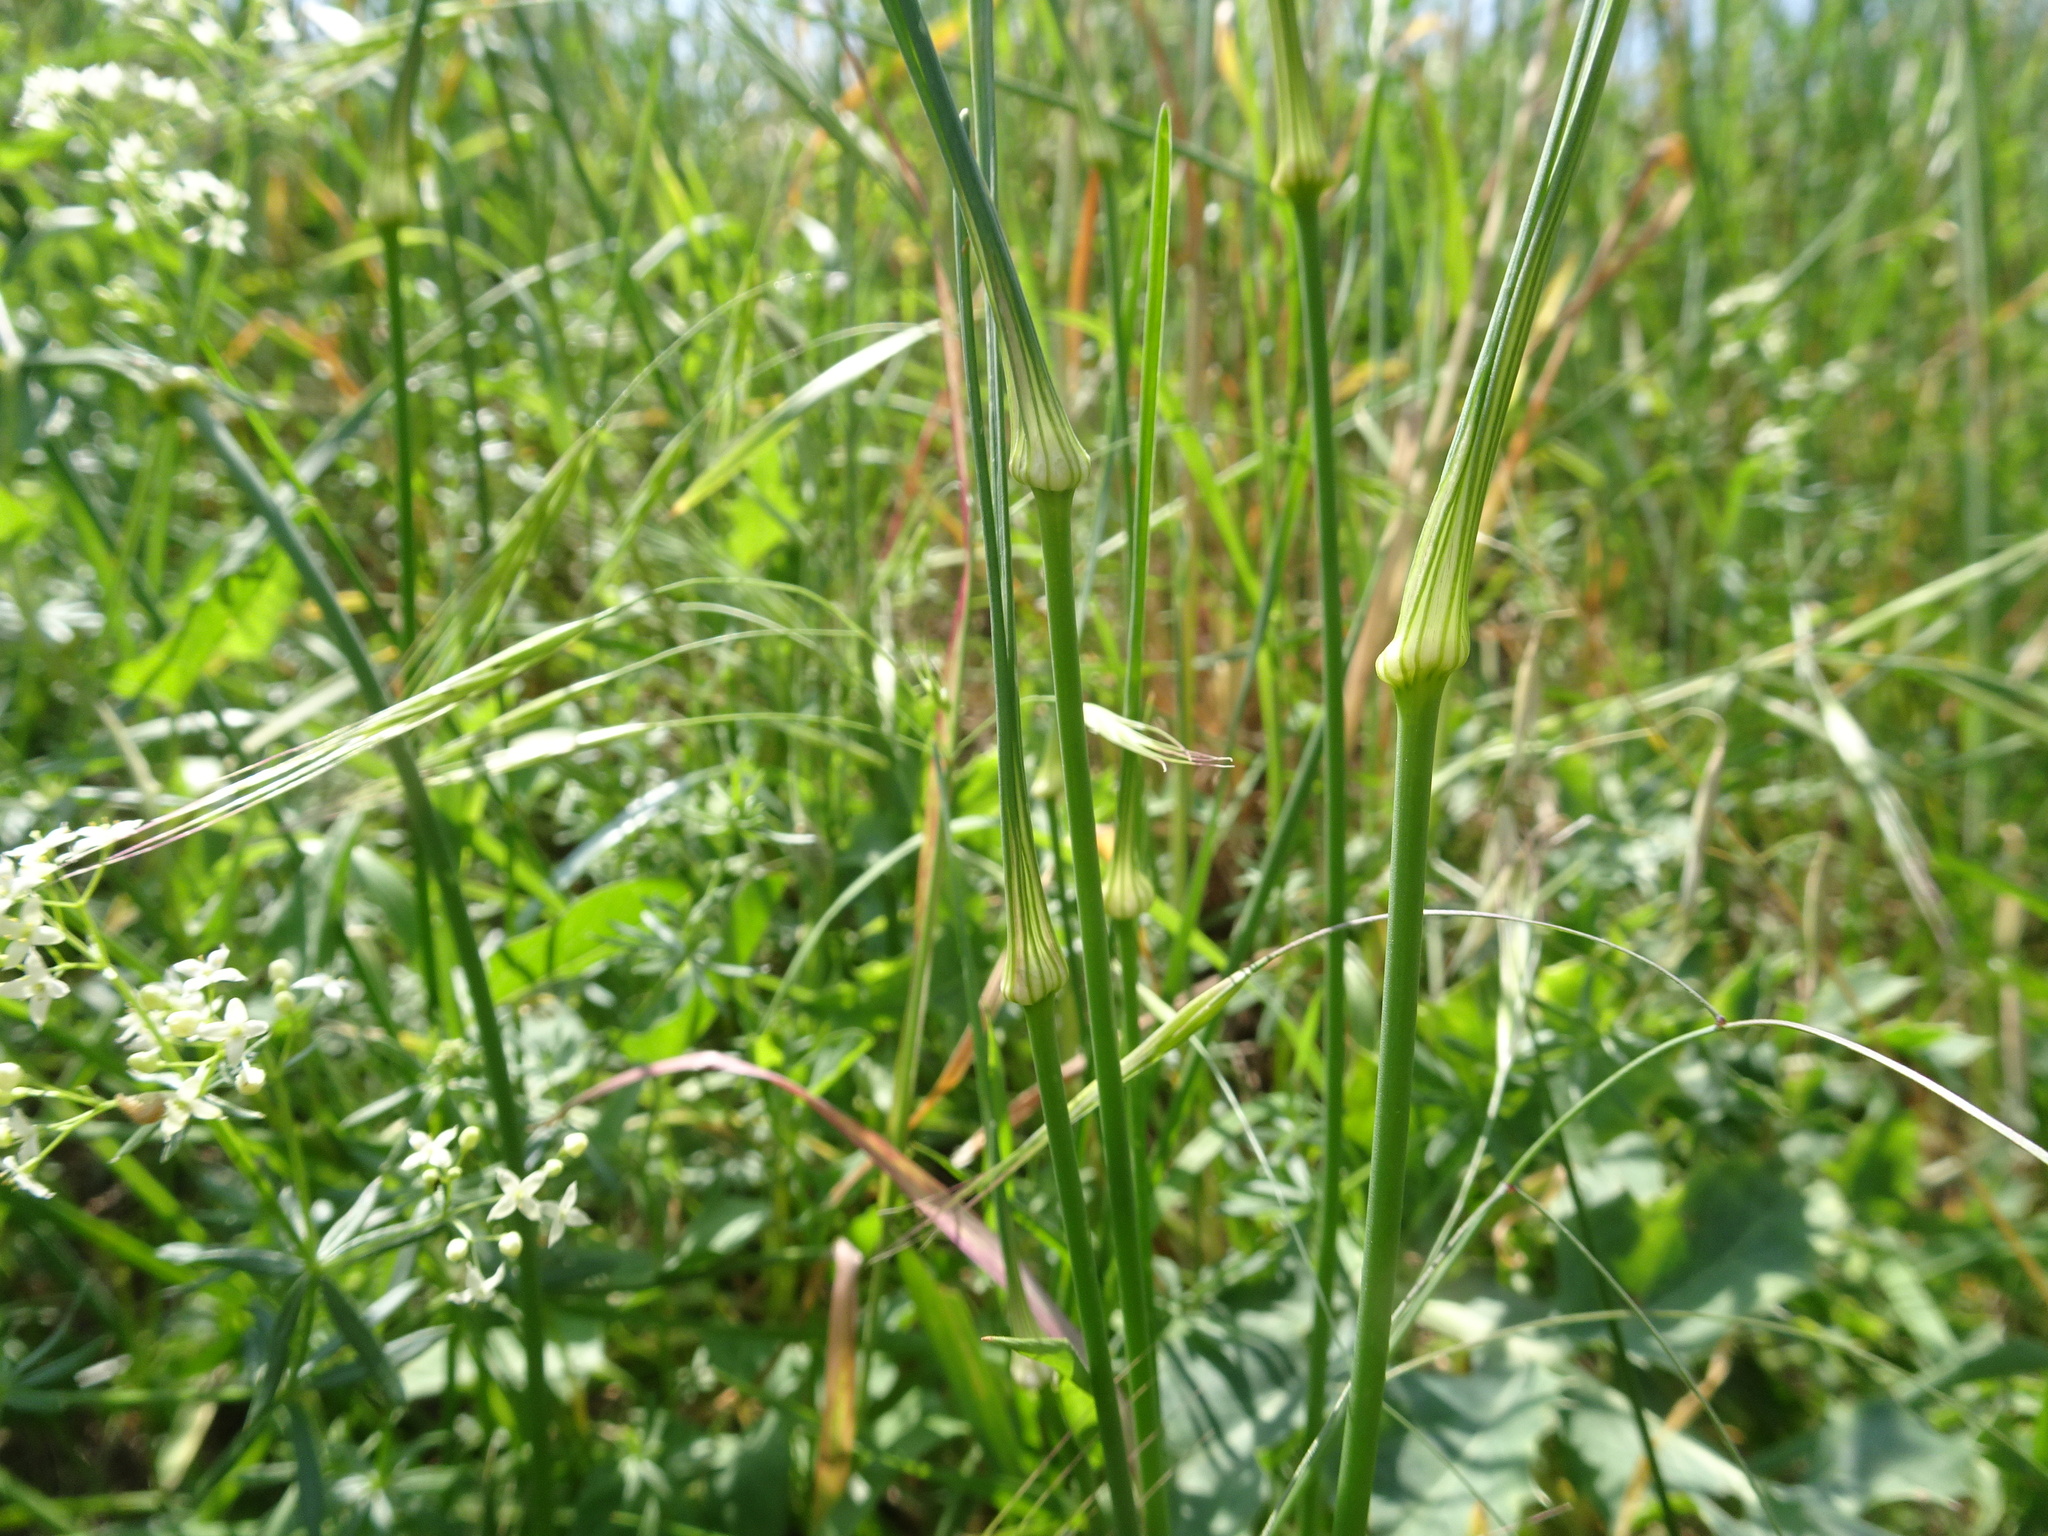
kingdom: Plantae
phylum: Tracheophyta
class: Liliopsida
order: Asparagales
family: Amaryllidaceae
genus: Allium
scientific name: Allium oleraceum
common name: Field garlic
